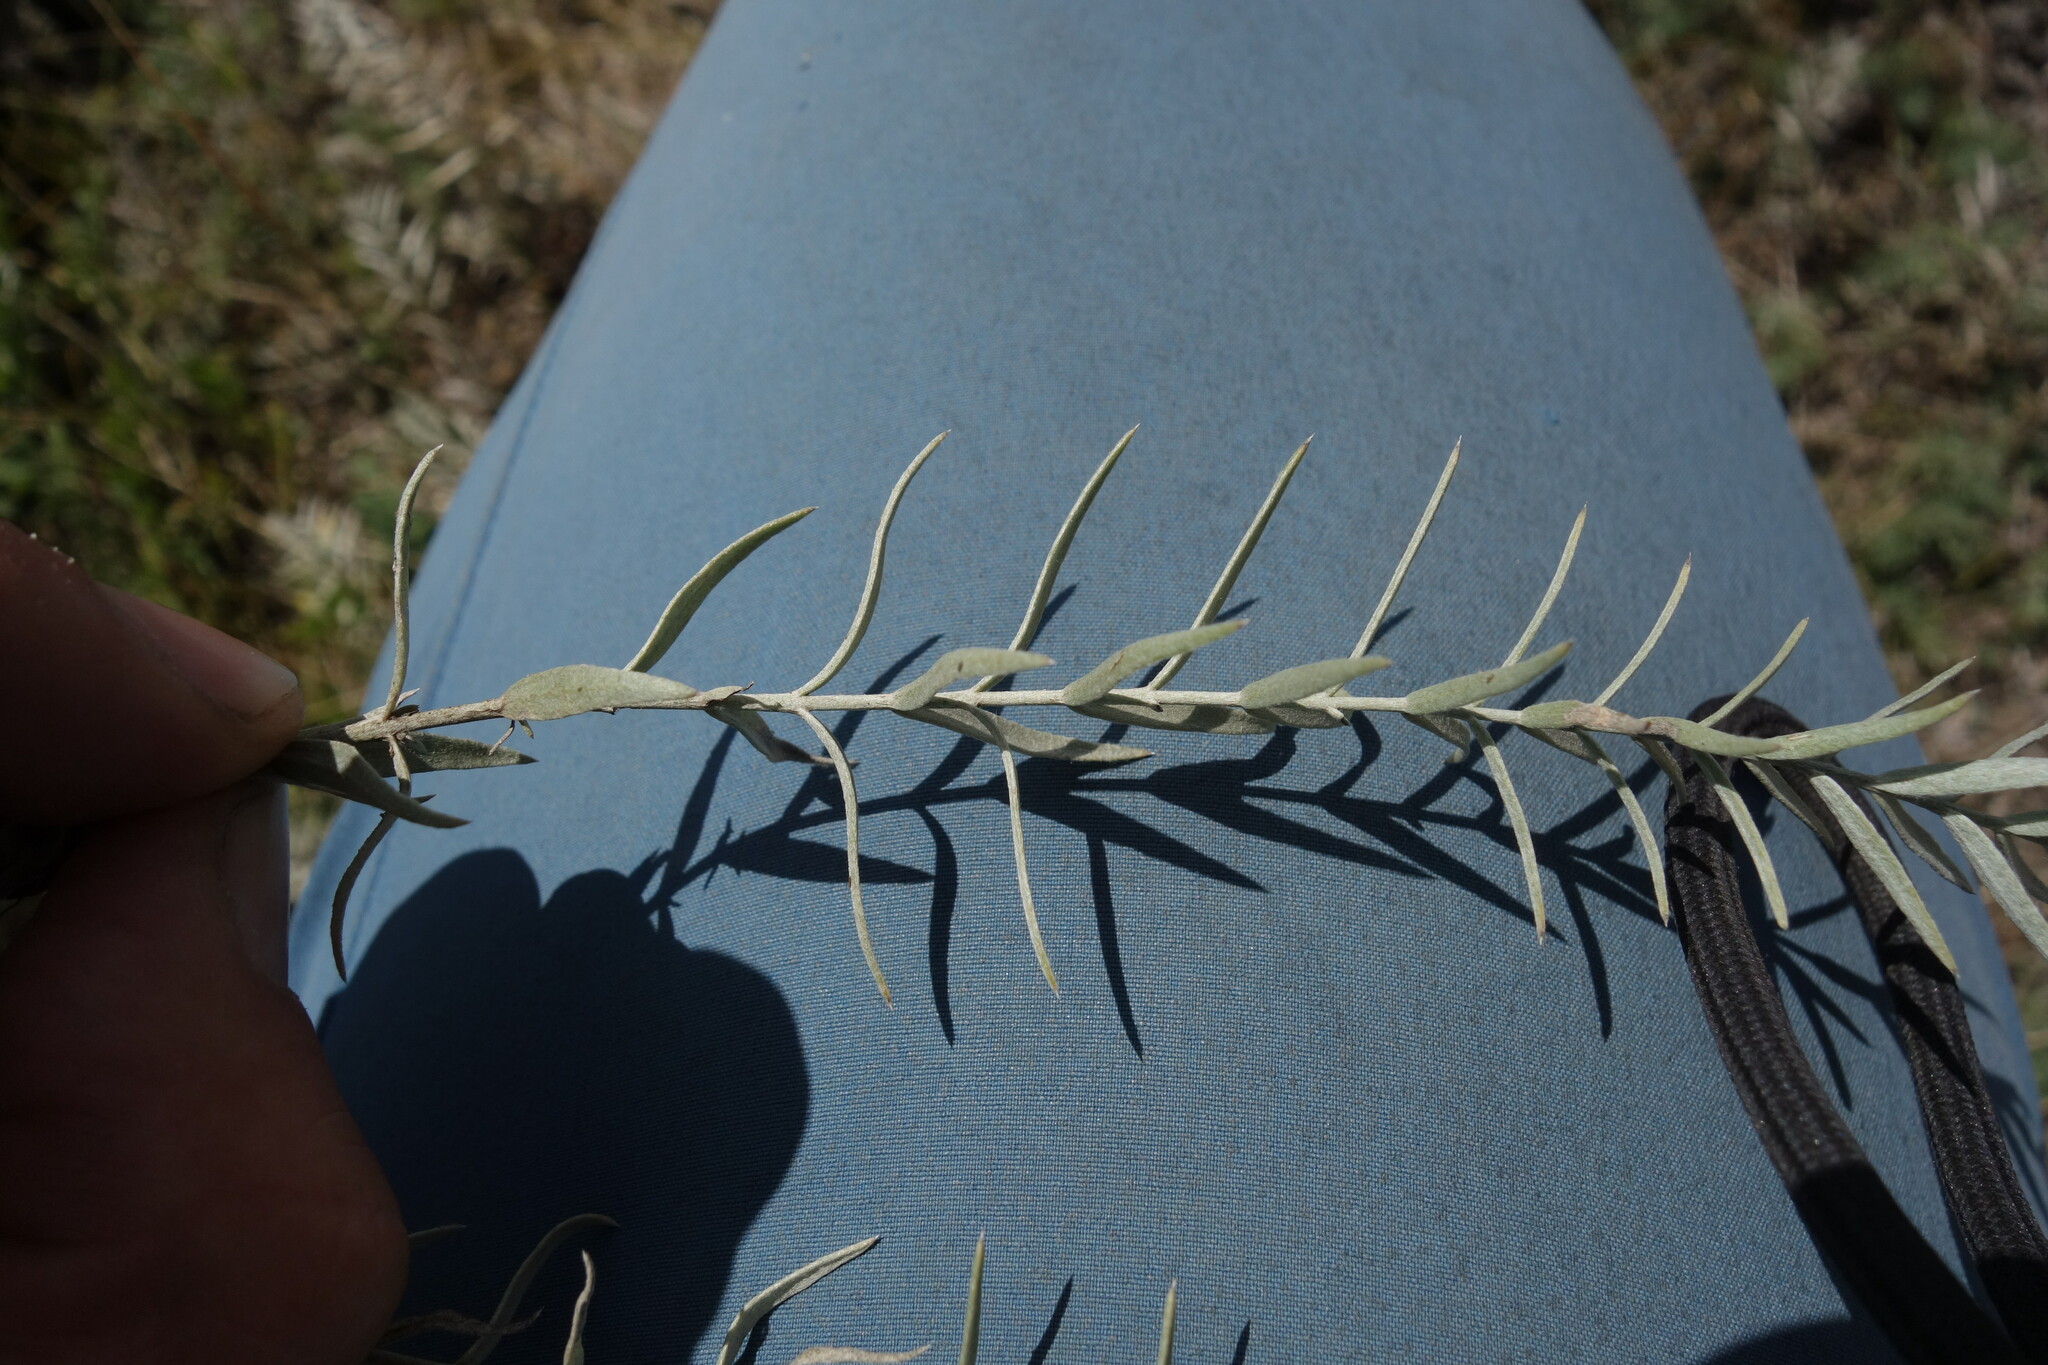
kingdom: Plantae
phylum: Tracheophyta
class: Magnoliopsida
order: Lamiales
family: Orobanchaceae
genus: Cymbaria
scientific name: Cymbaria daurica
